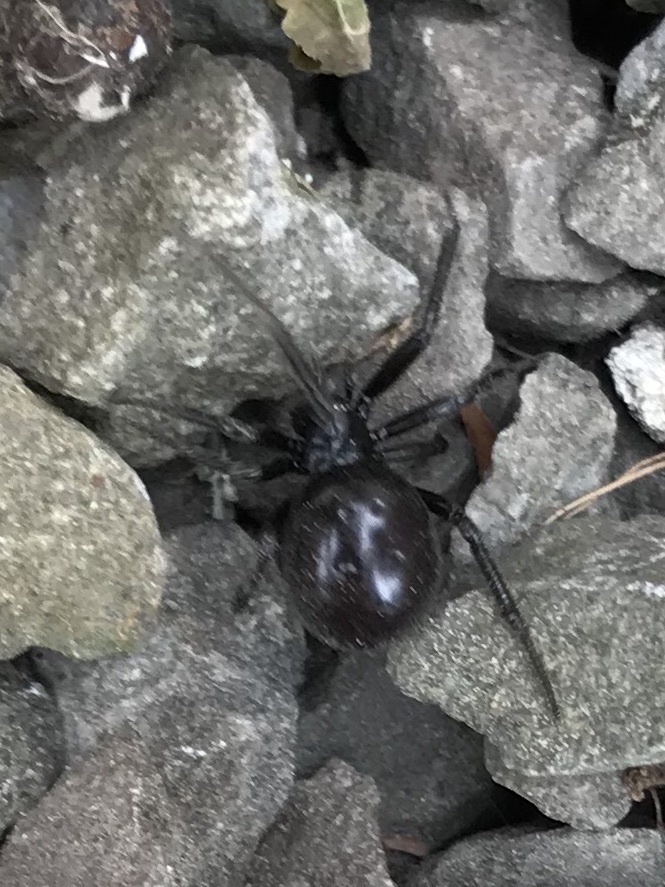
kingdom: Animalia
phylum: Arthropoda
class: Arachnida
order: Araneae
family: Theridiidae
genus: Steatoda
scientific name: Steatoda capensis
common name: Cobweb weaver
